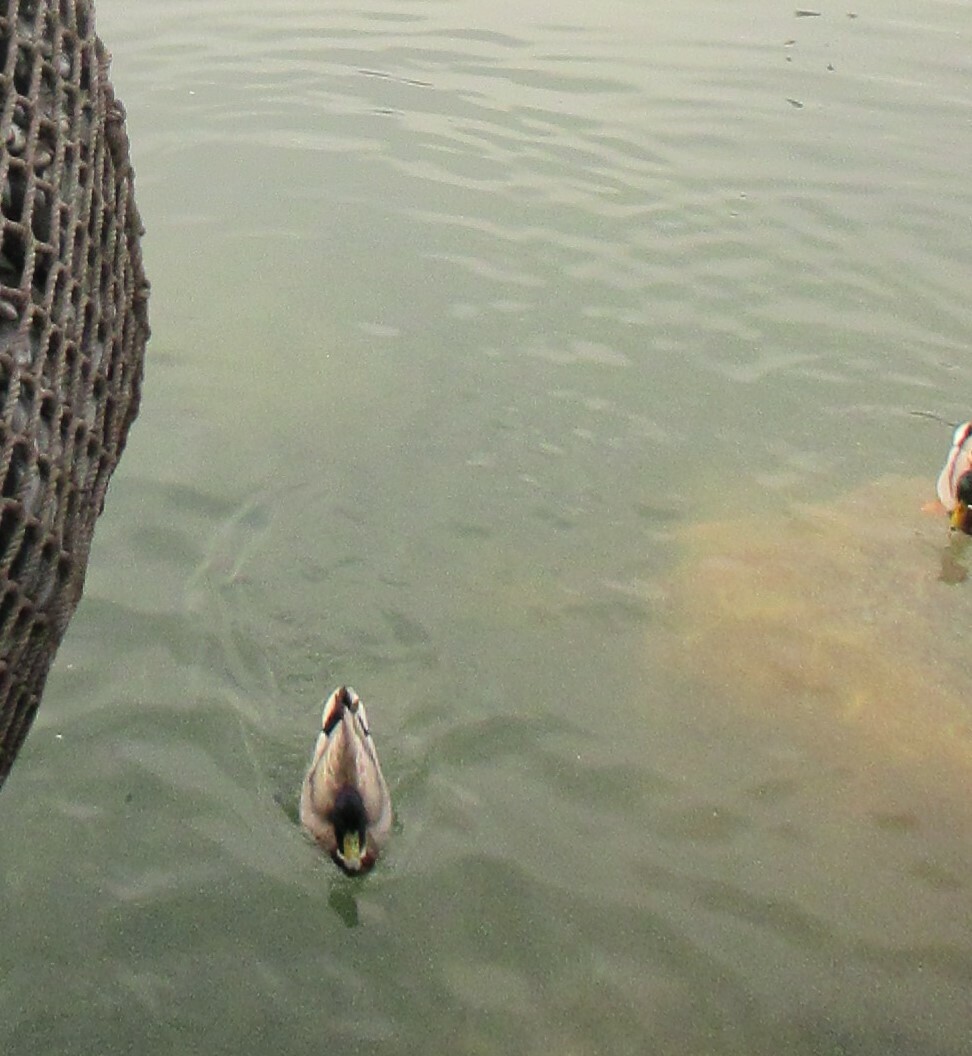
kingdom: Animalia
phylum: Chordata
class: Aves
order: Anseriformes
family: Anatidae
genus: Anas
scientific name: Anas platyrhynchos
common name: Mallard
